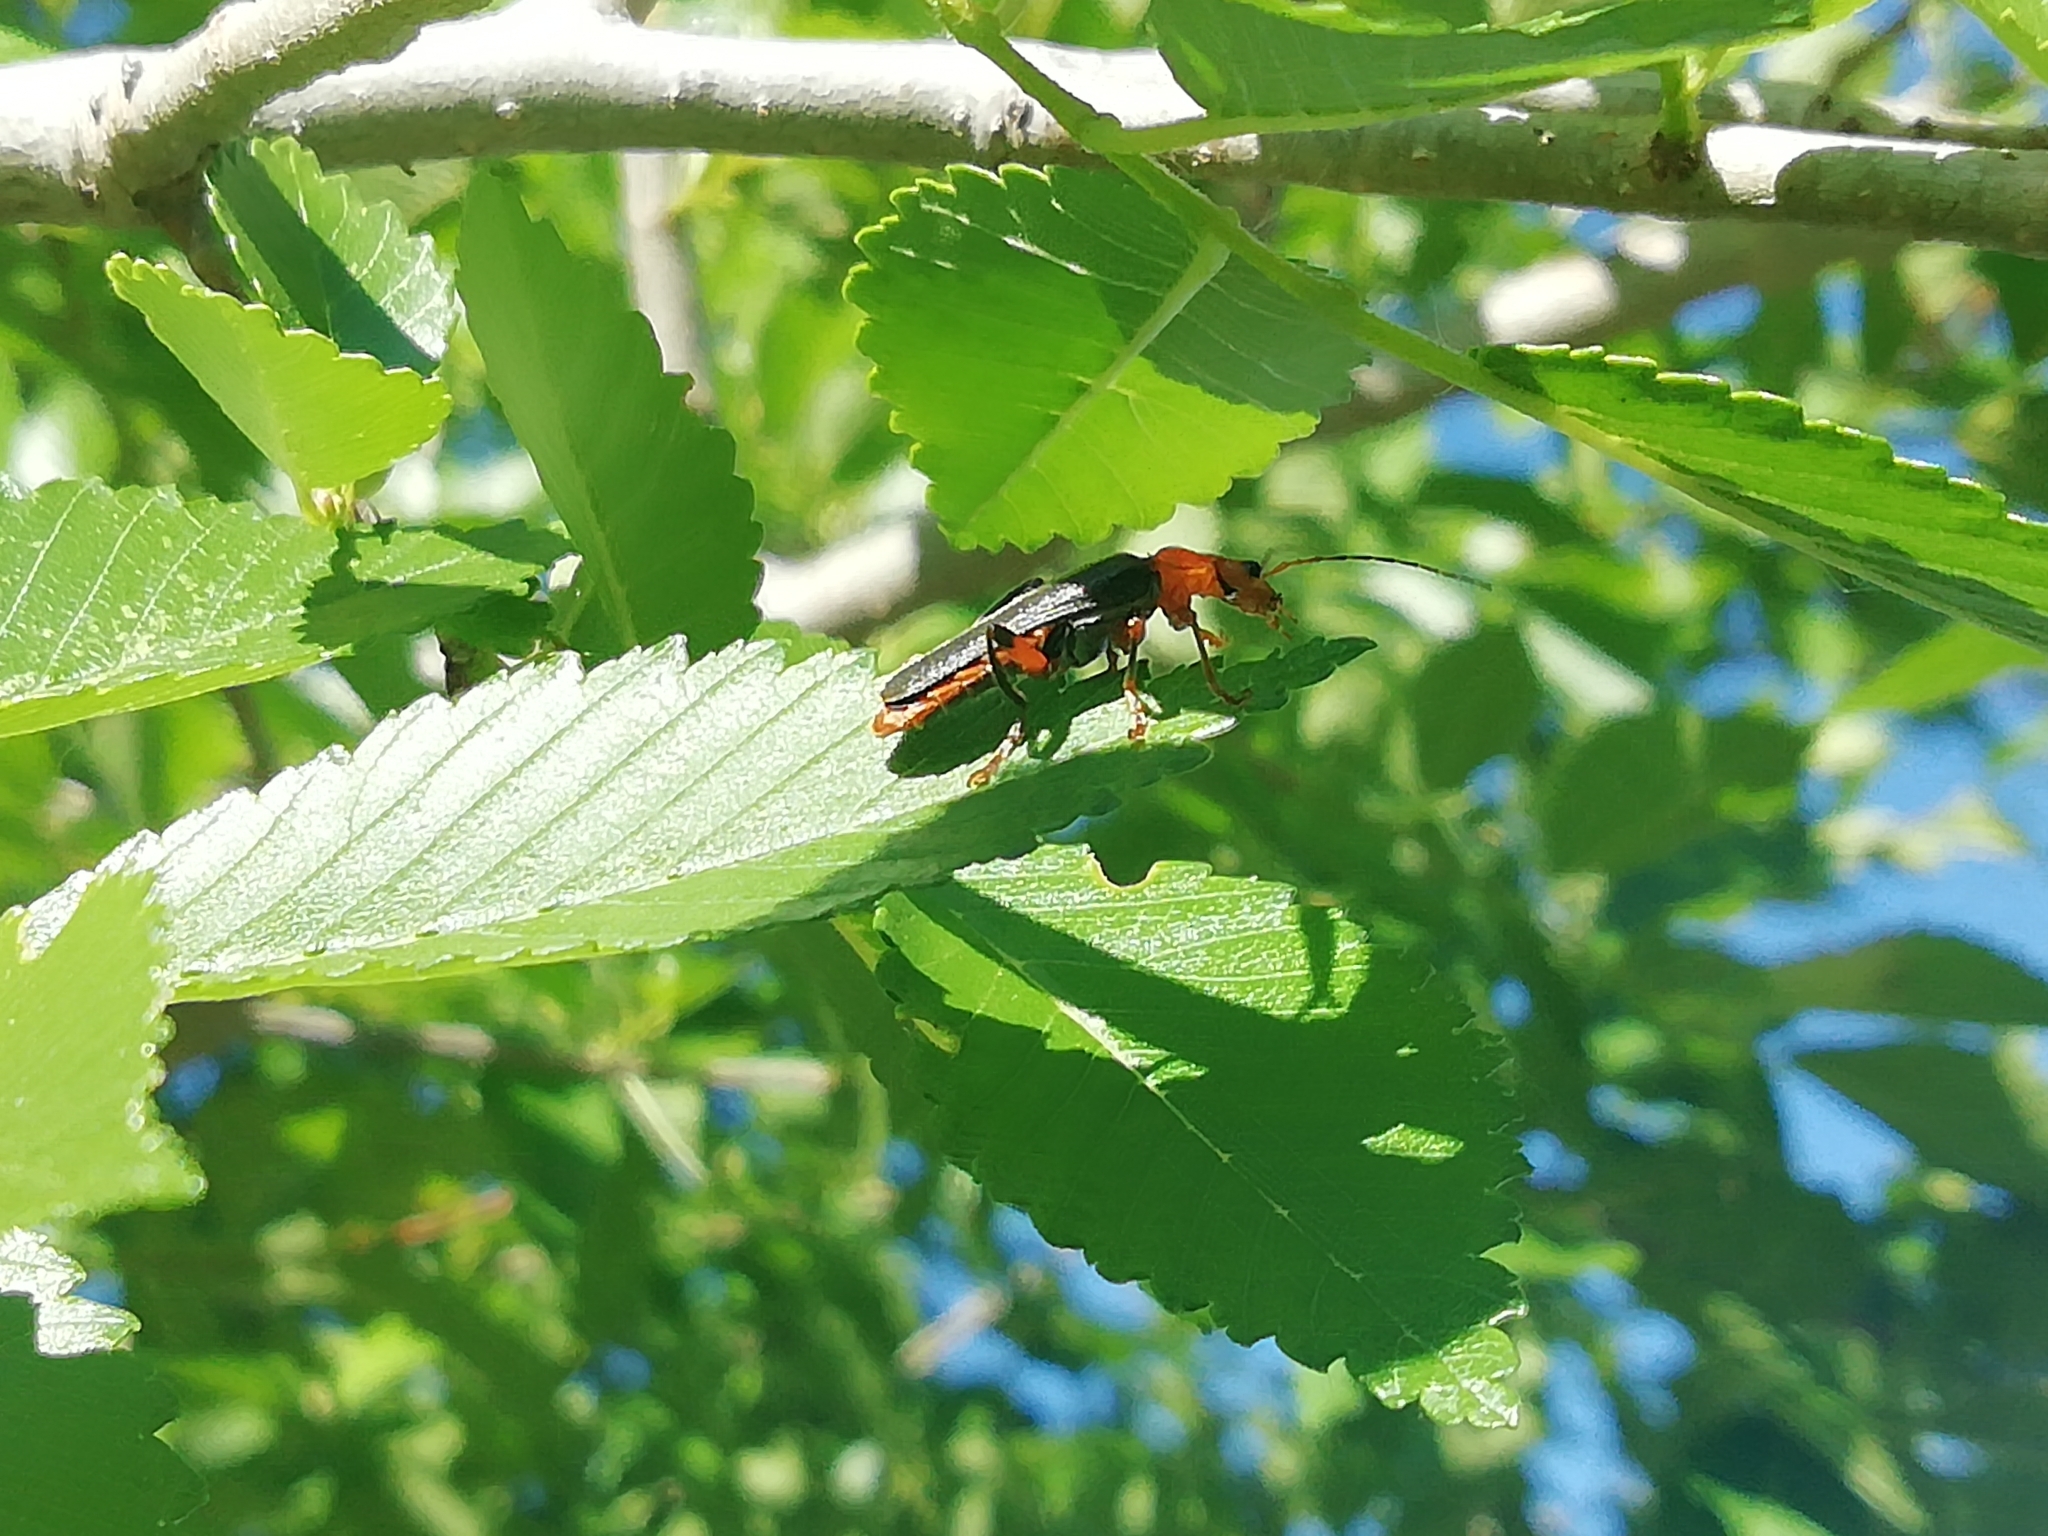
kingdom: Animalia
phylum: Arthropoda
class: Insecta
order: Coleoptera
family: Cantharidae
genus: Cantharis
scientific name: Cantharis livida
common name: Livid soldier beetle
